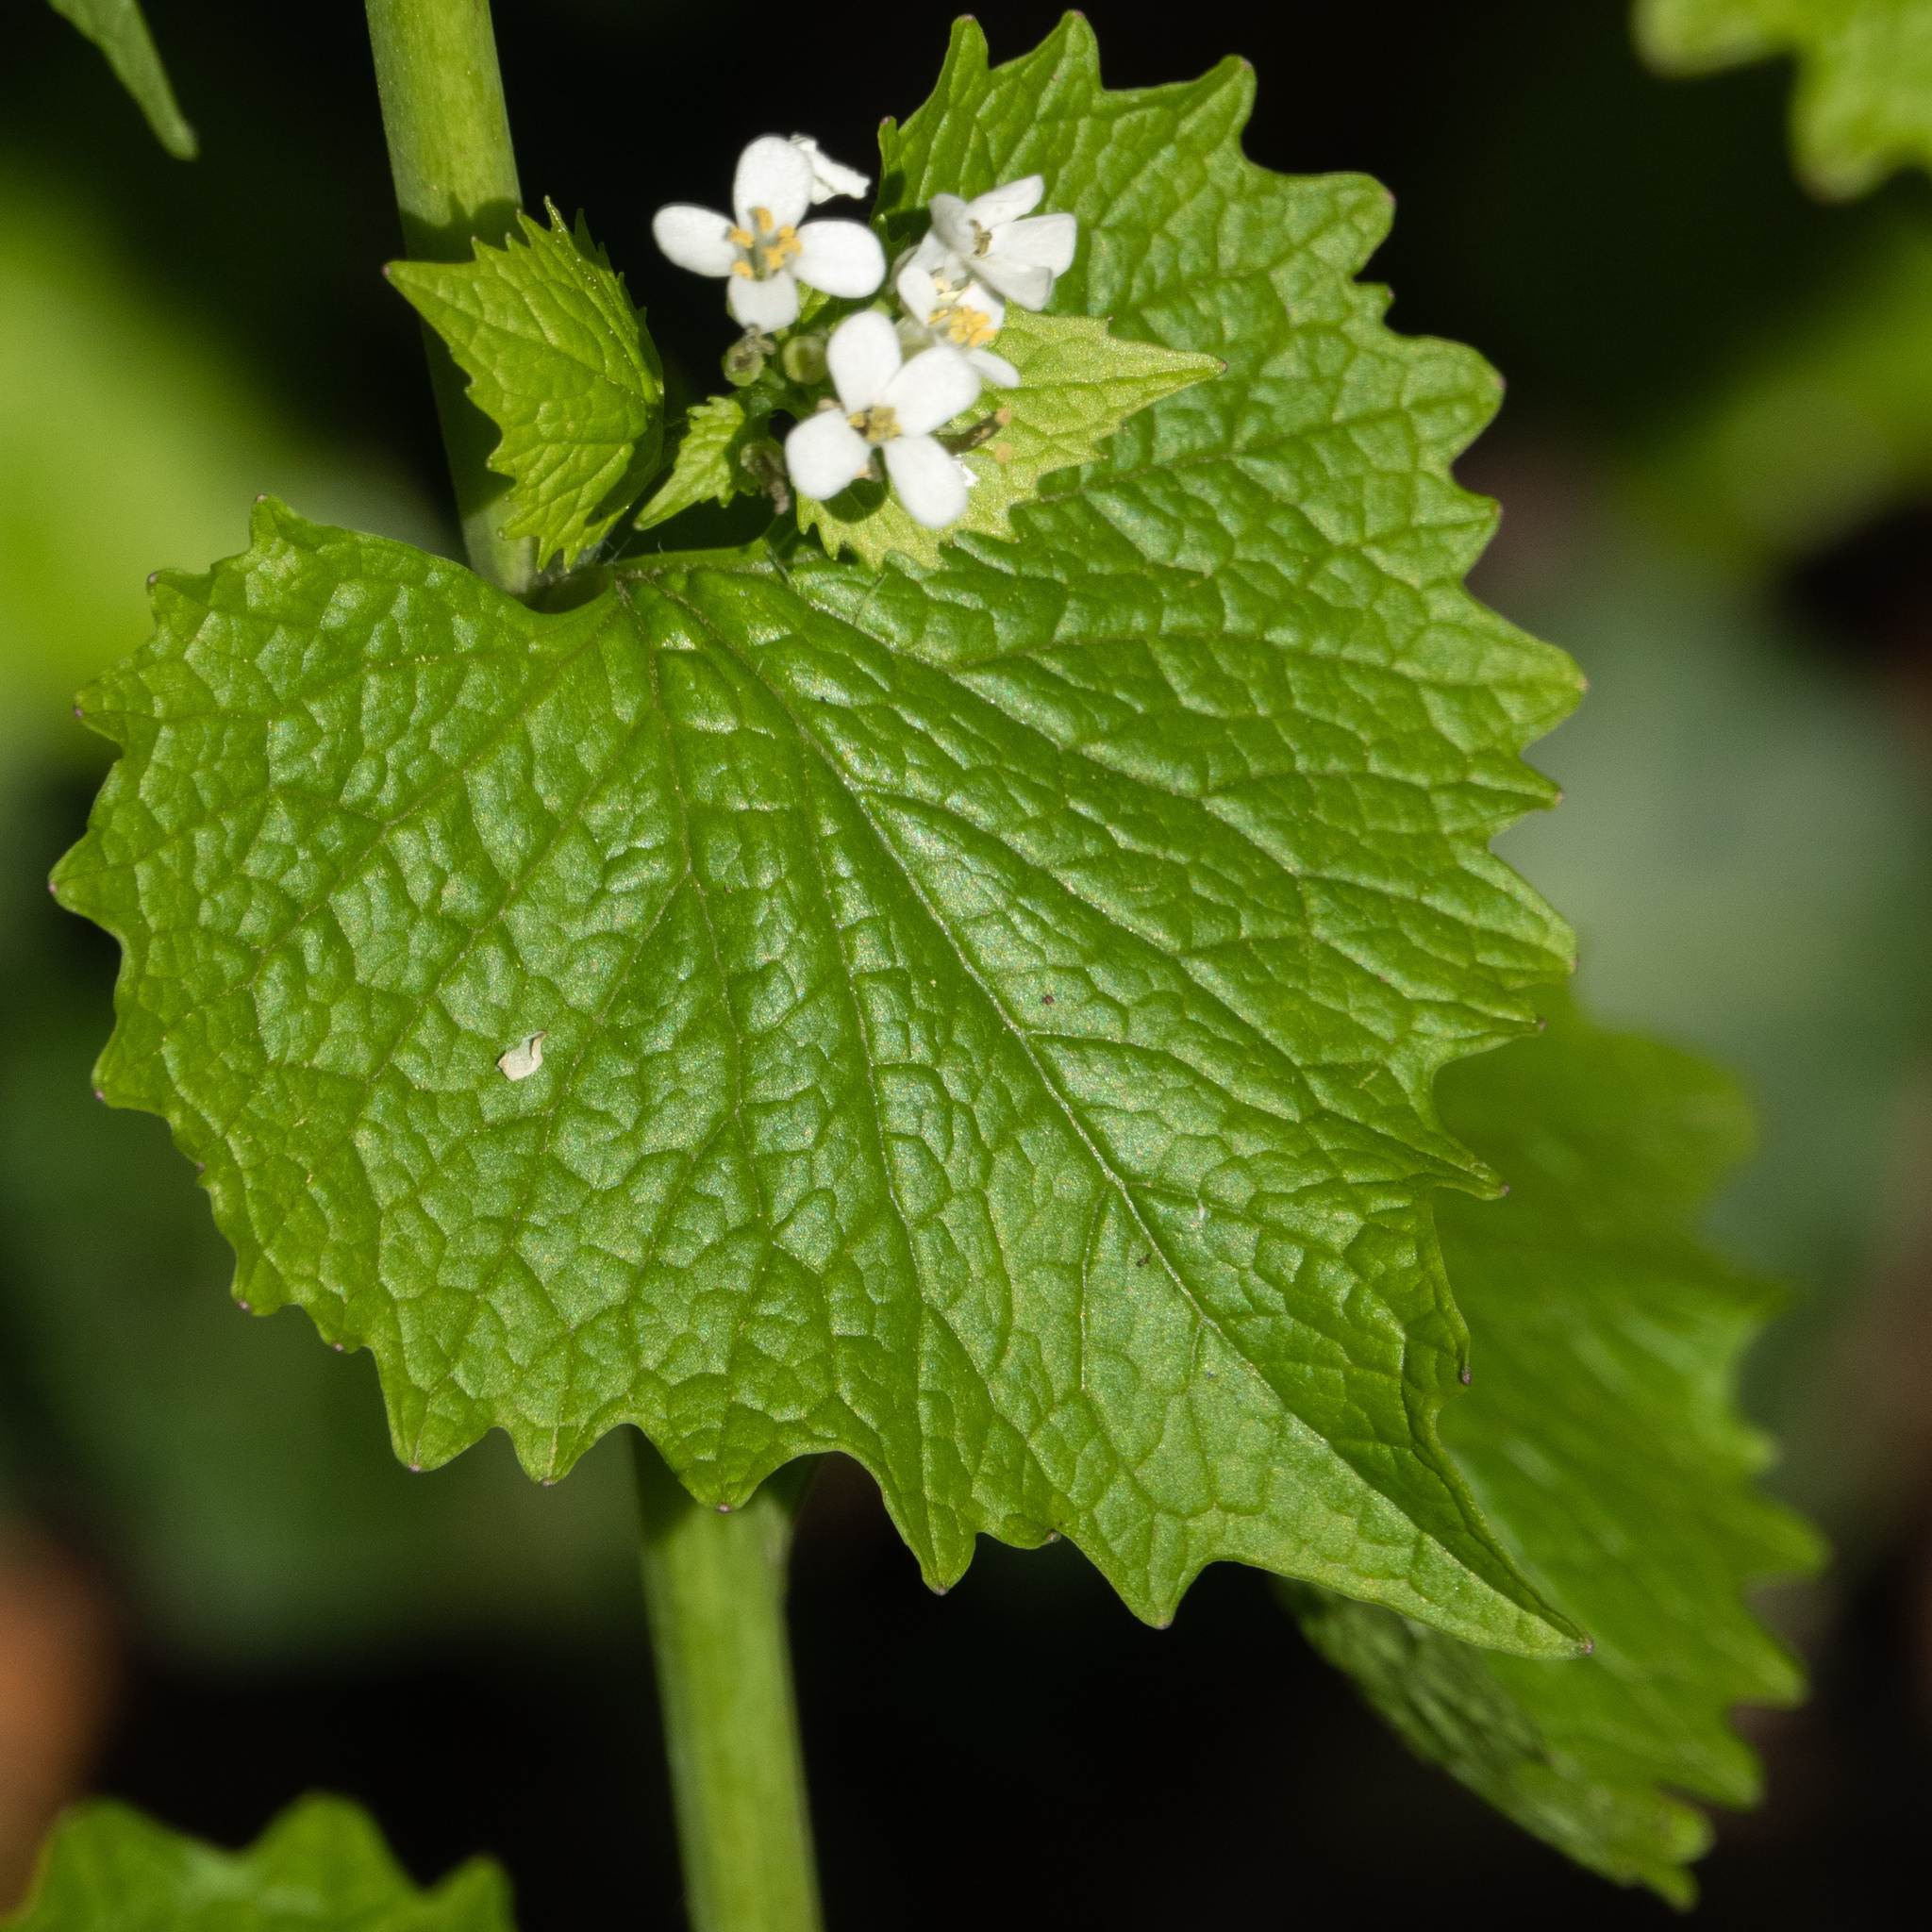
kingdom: Plantae
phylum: Tracheophyta
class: Magnoliopsida
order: Brassicales
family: Brassicaceae
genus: Alliaria
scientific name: Alliaria petiolata
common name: Garlic mustard
